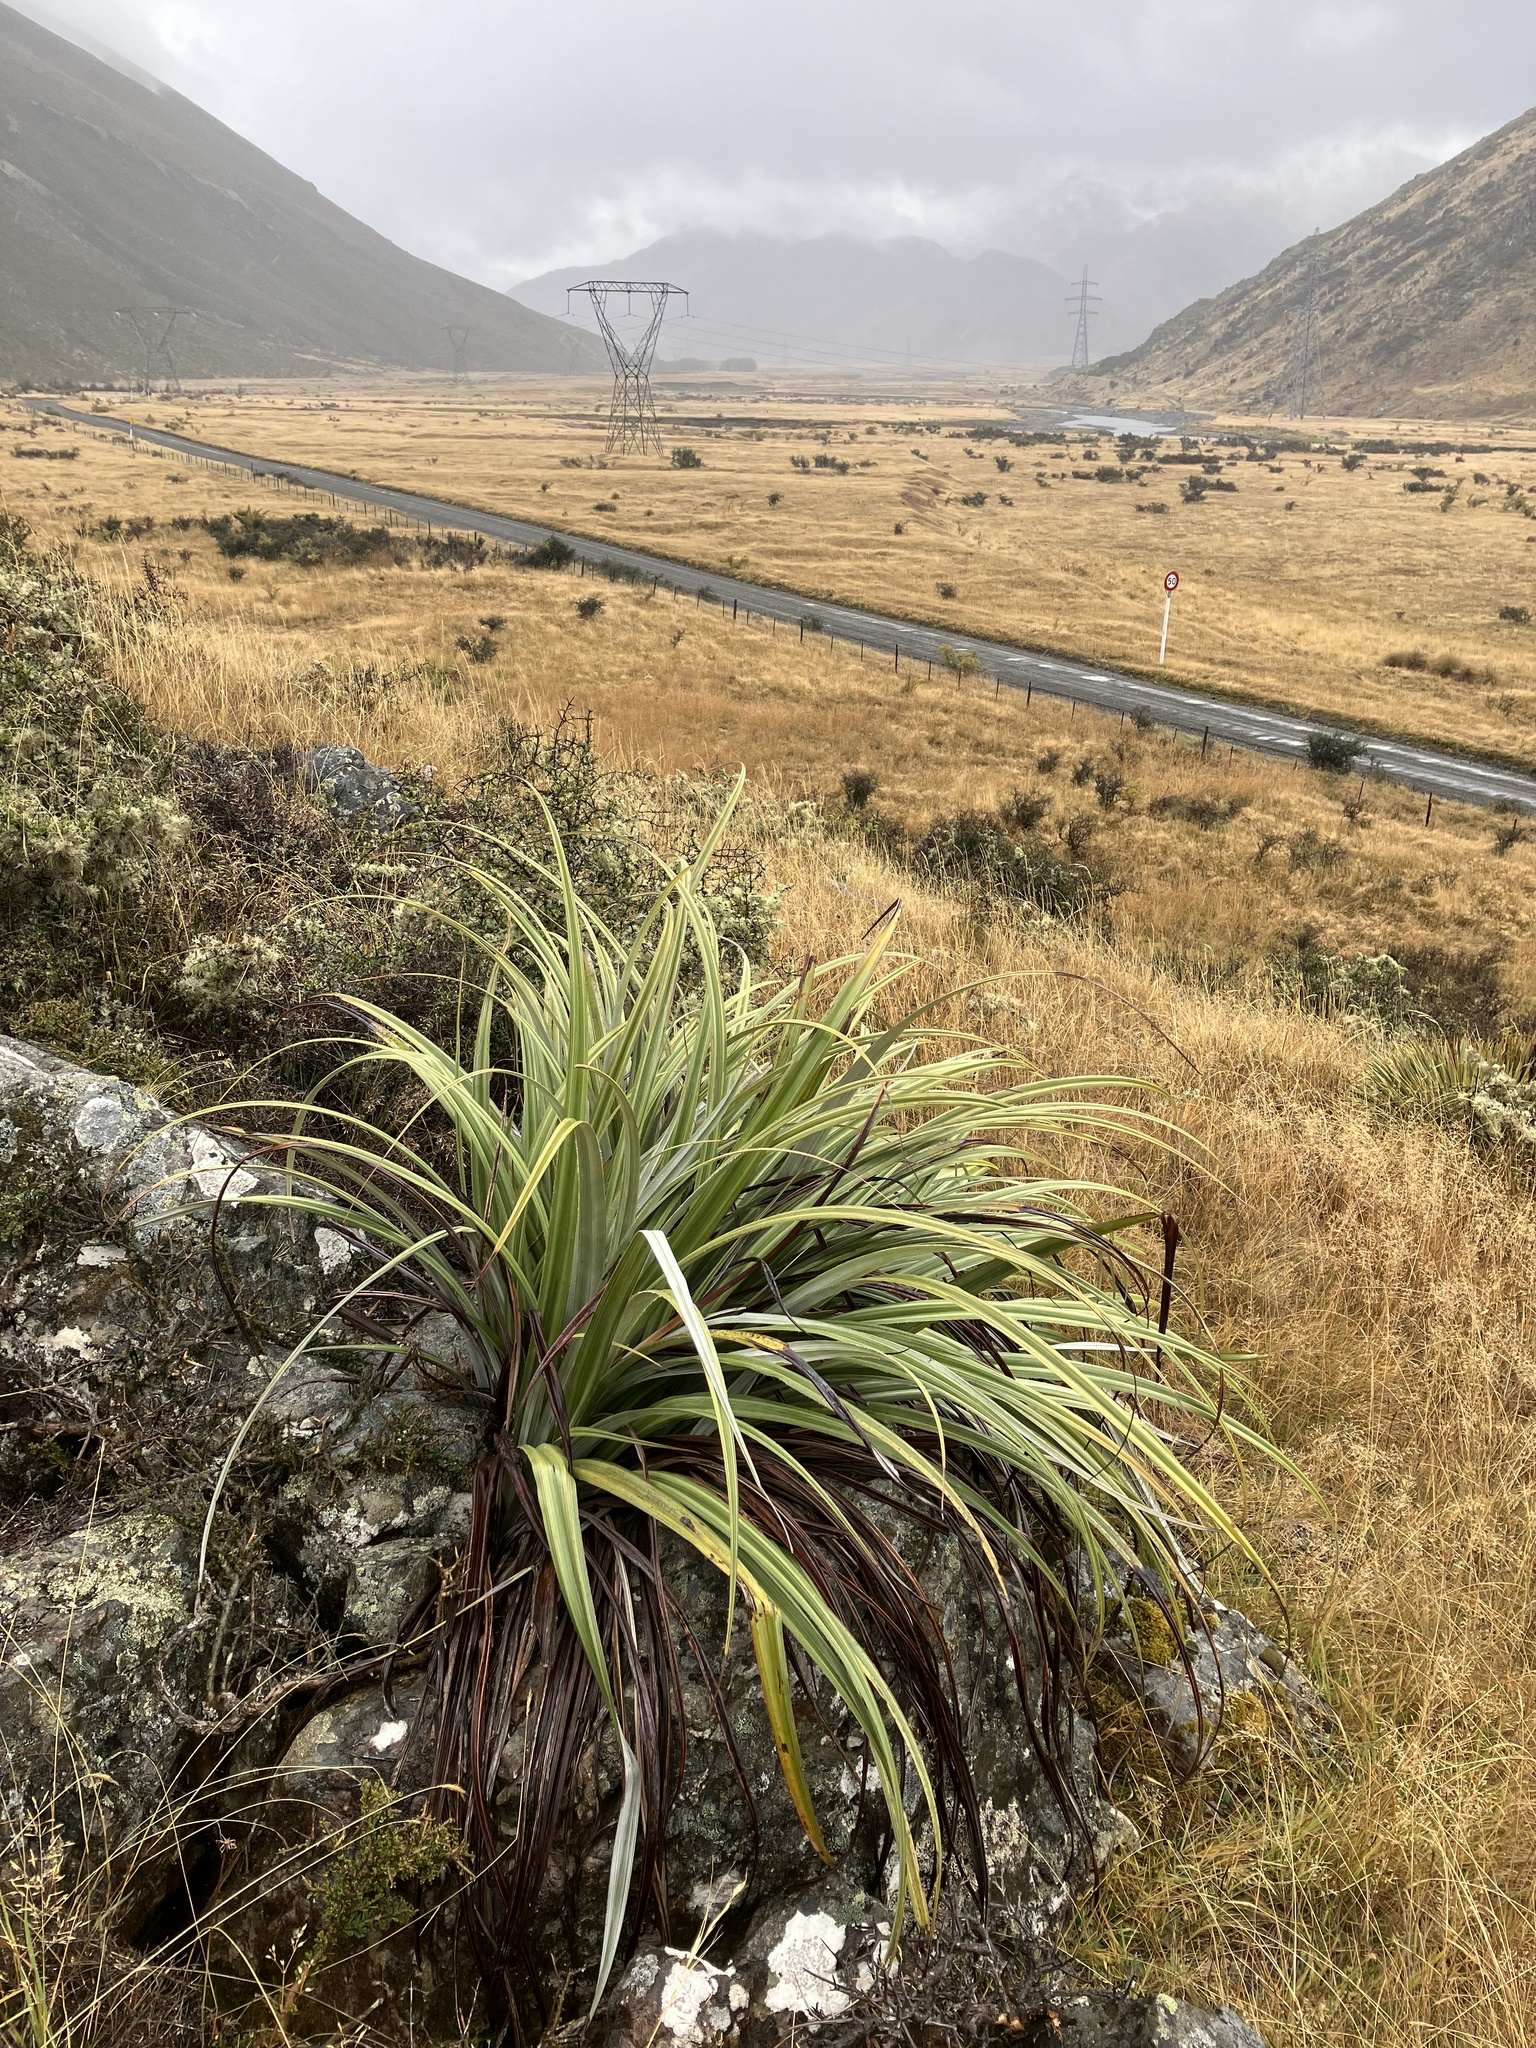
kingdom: Plantae
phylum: Tracheophyta
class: Liliopsida
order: Asparagales
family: Asteliaceae
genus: Astelia
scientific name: Astelia nervosa
